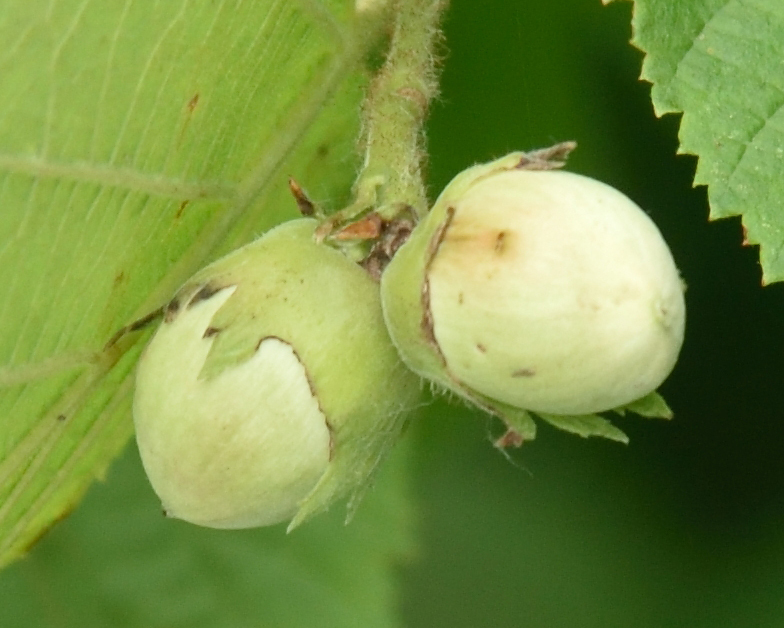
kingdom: Plantae
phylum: Tracheophyta
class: Magnoliopsida
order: Fagales
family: Betulaceae
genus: Corylus
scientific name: Corylus avellana
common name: European hazel
